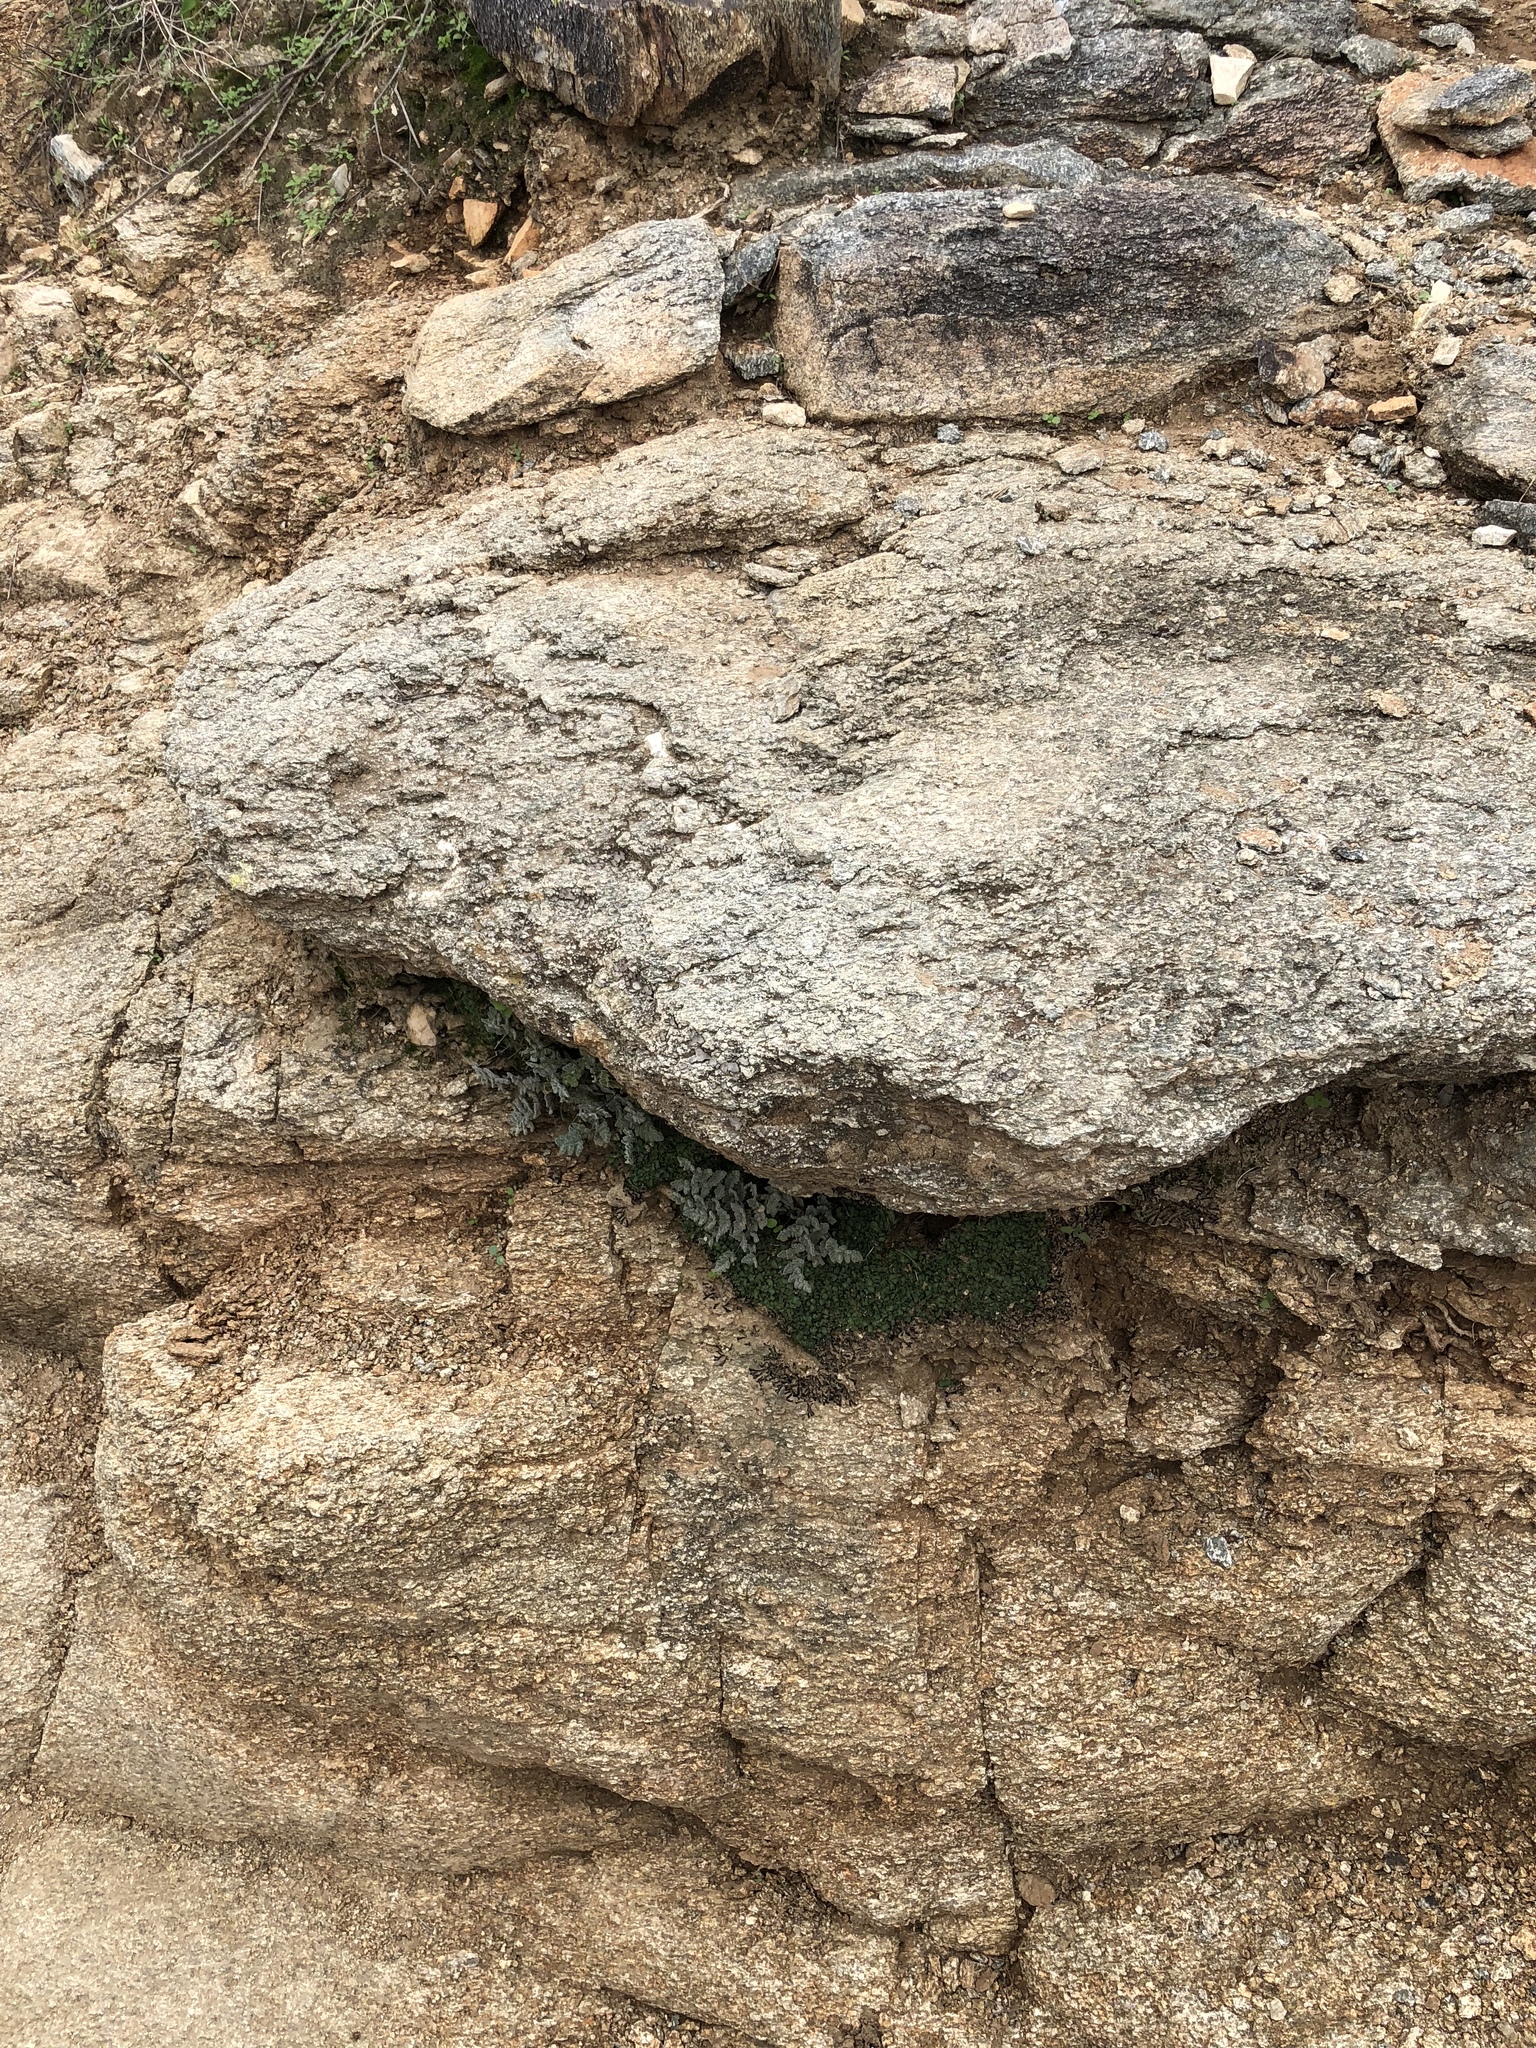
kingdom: Plantae
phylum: Tracheophyta
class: Polypodiopsida
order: Polypodiales
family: Pteridaceae
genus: Myriopteris
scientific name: Myriopteris parryi
